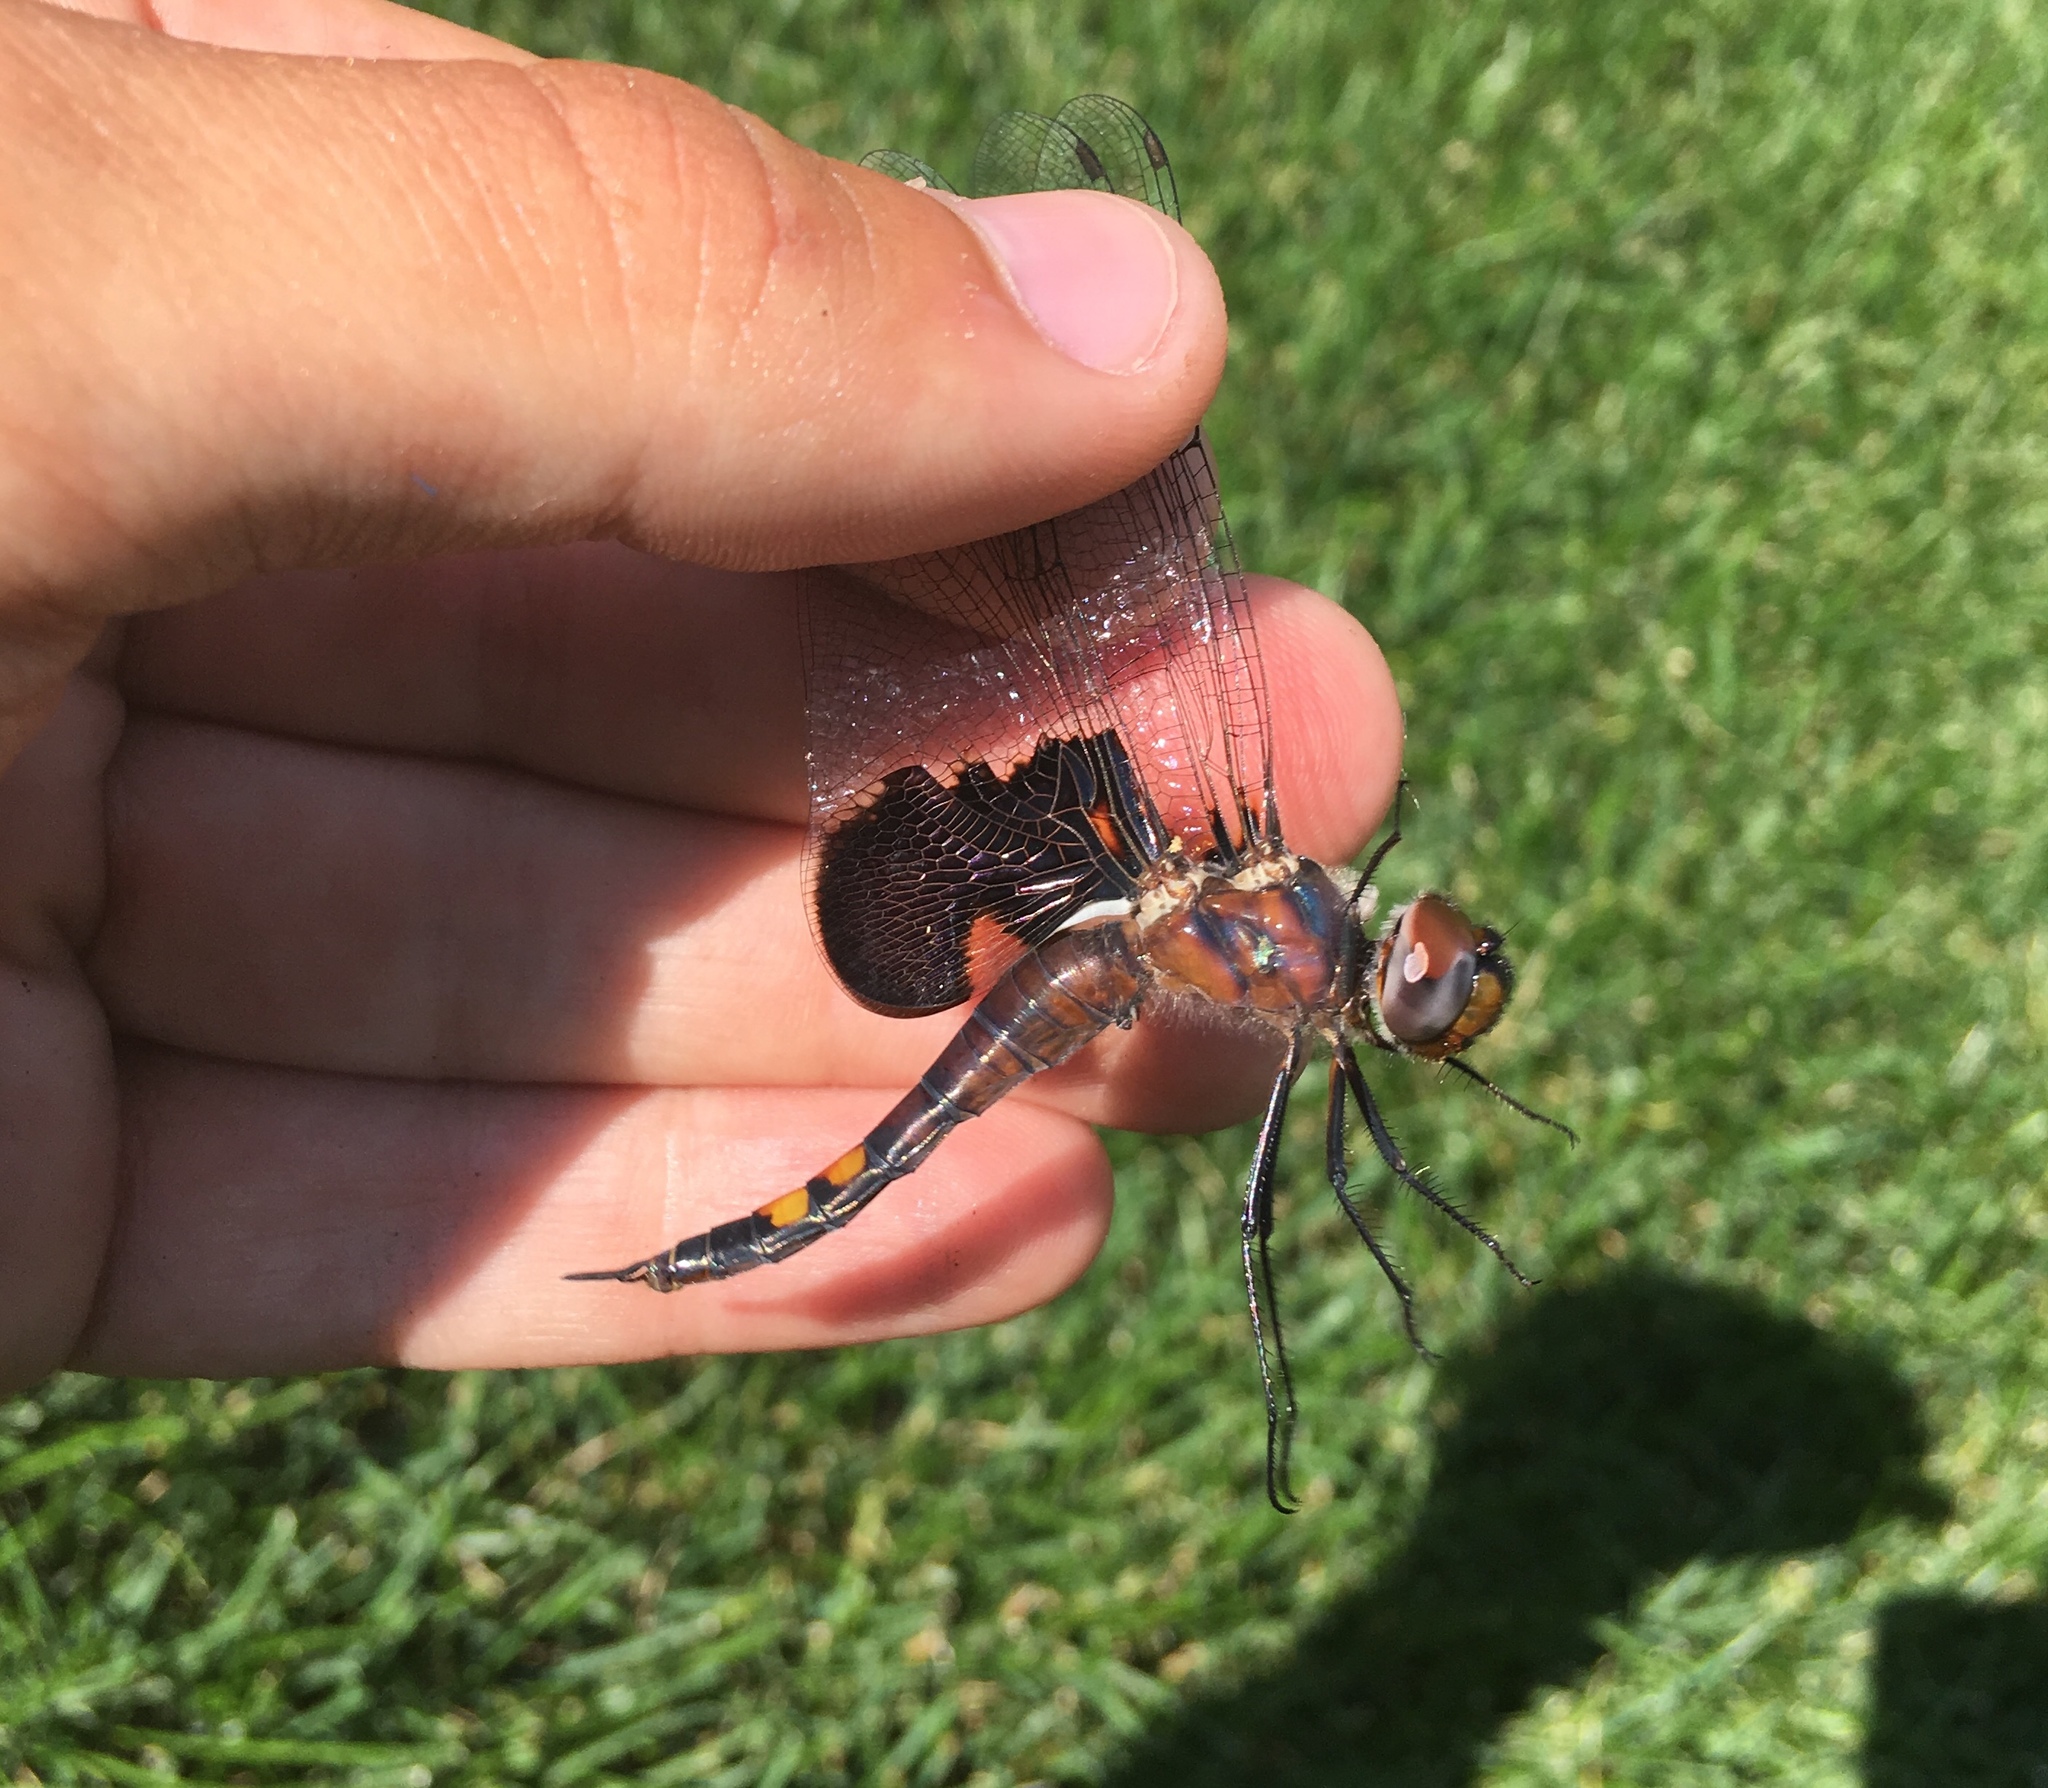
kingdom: Animalia
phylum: Arthropoda
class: Insecta
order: Odonata
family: Libellulidae
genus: Tramea
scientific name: Tramea lacerata
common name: Black saddlebags
